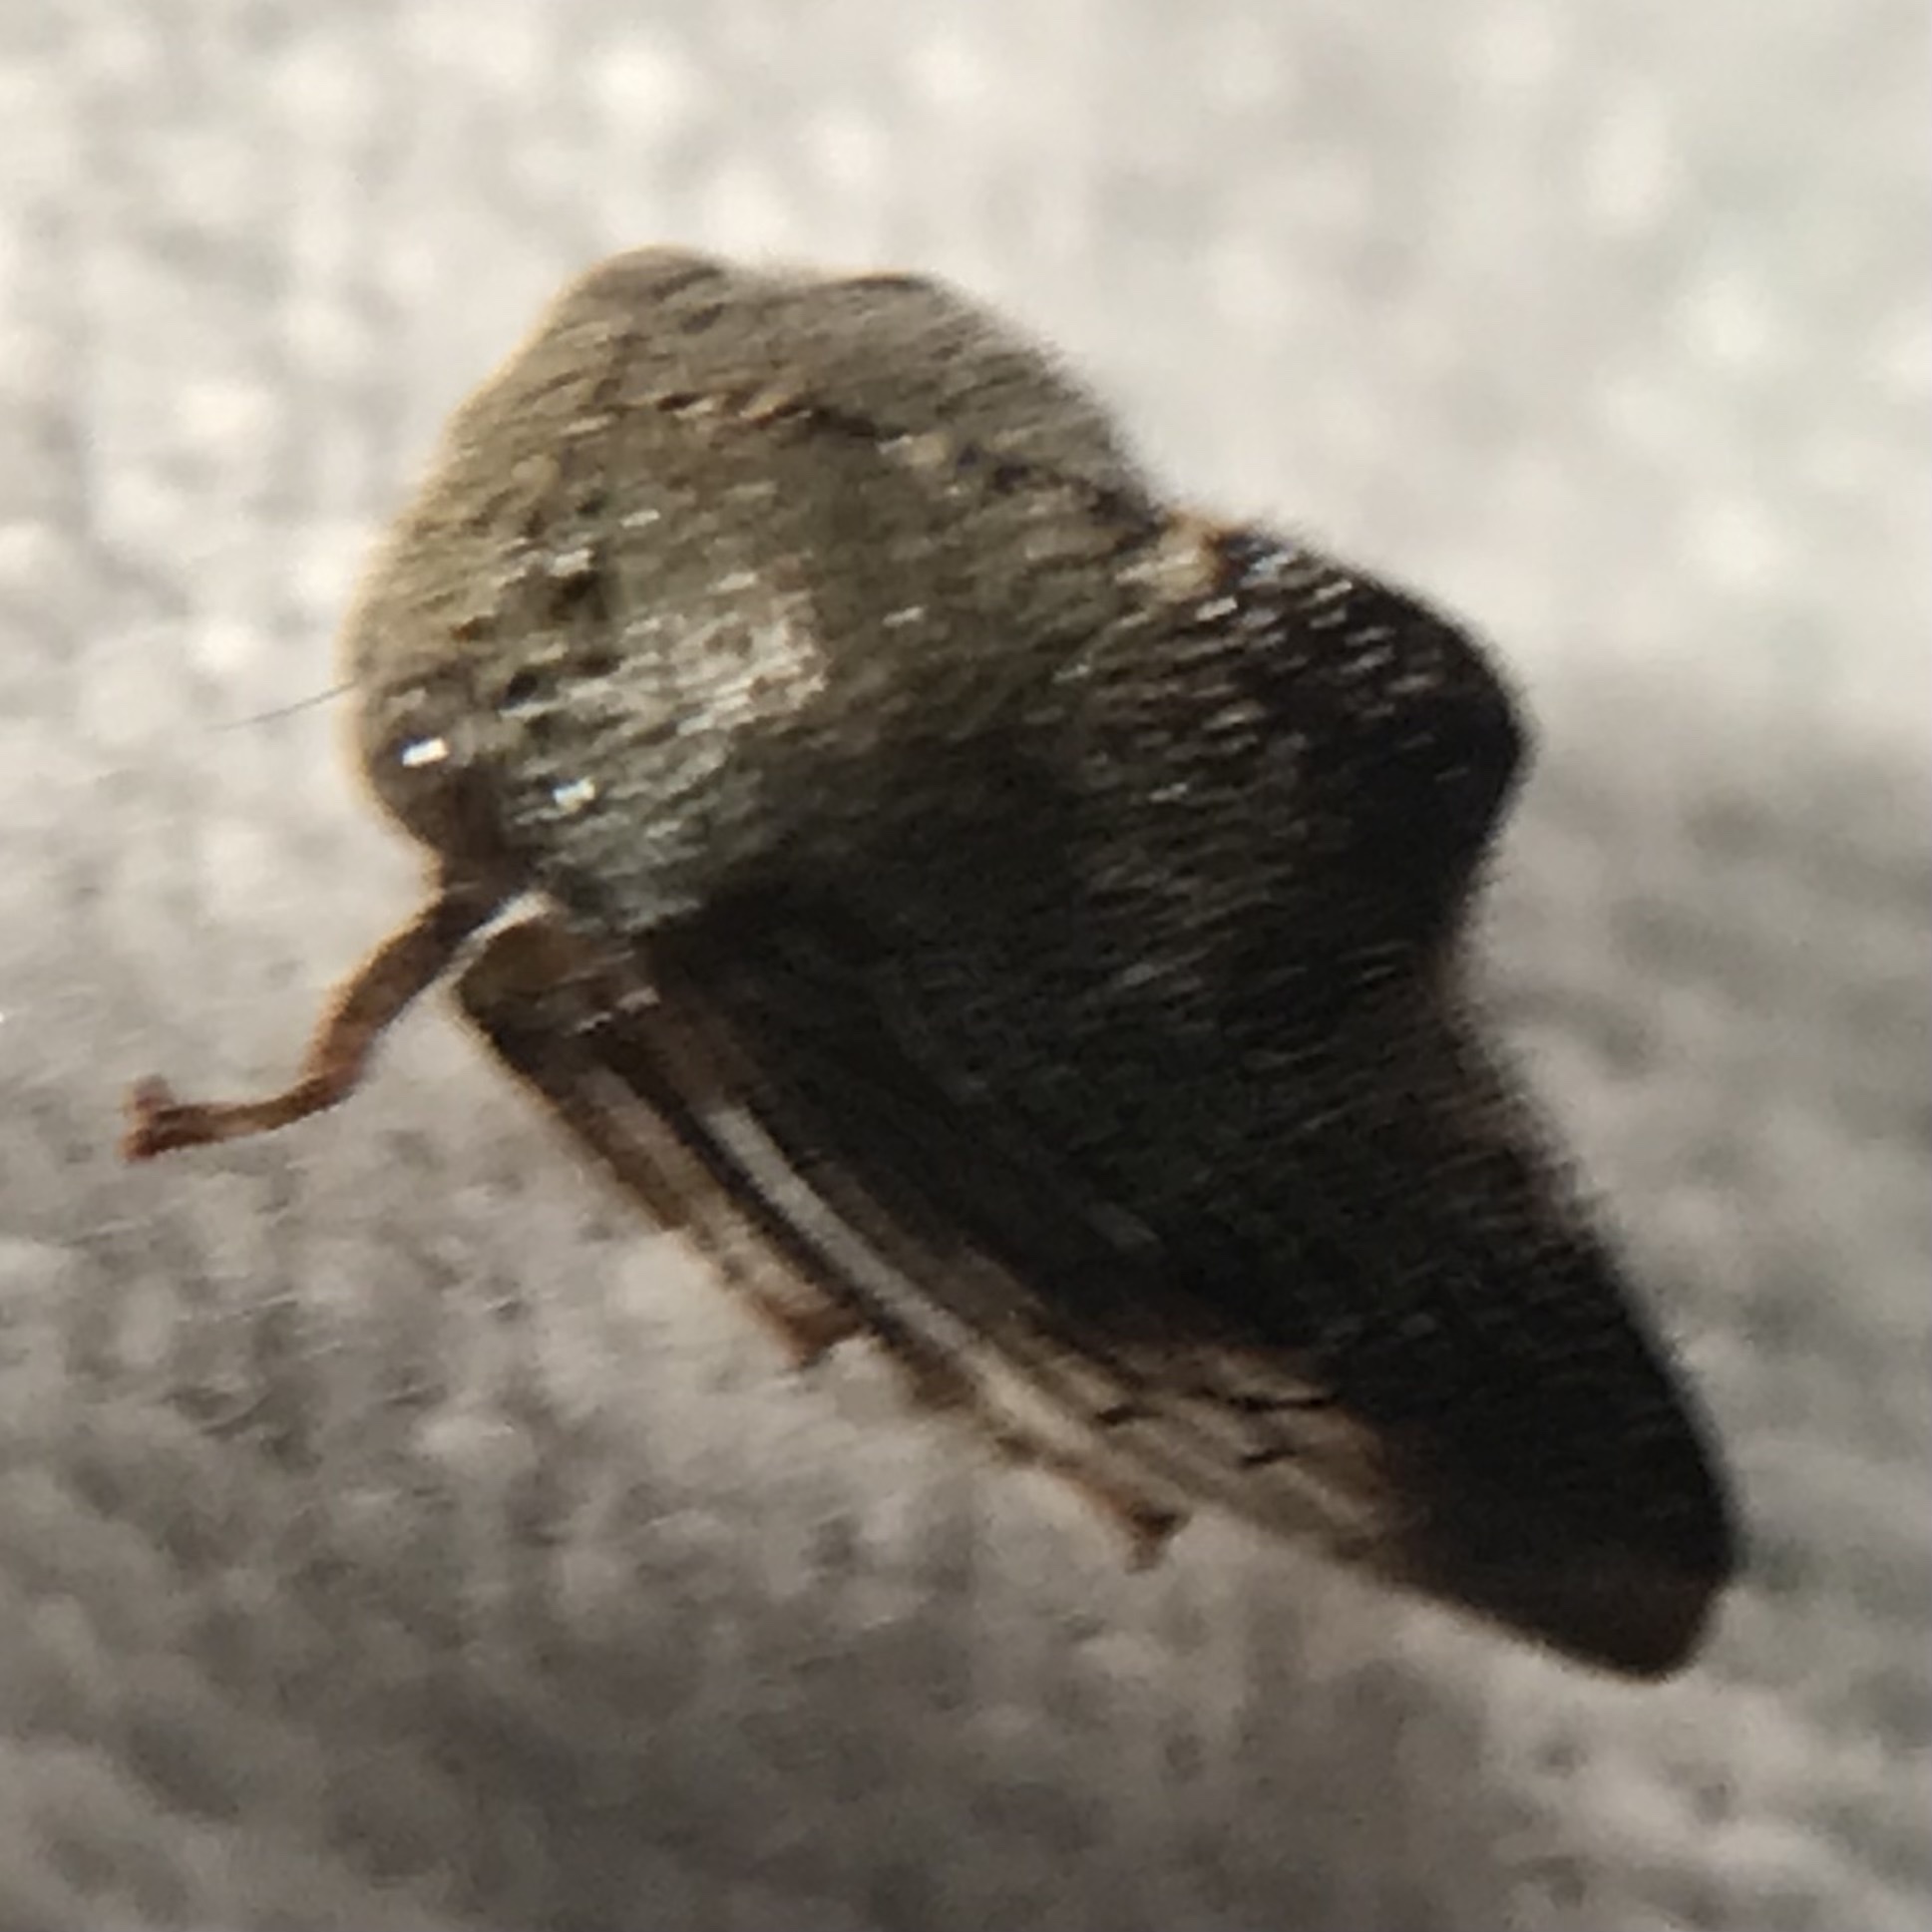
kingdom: Animalia
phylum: Arthropoda
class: Insecta
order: Hemiptera
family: Membracidae
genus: Telamona
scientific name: Telamona tarda
